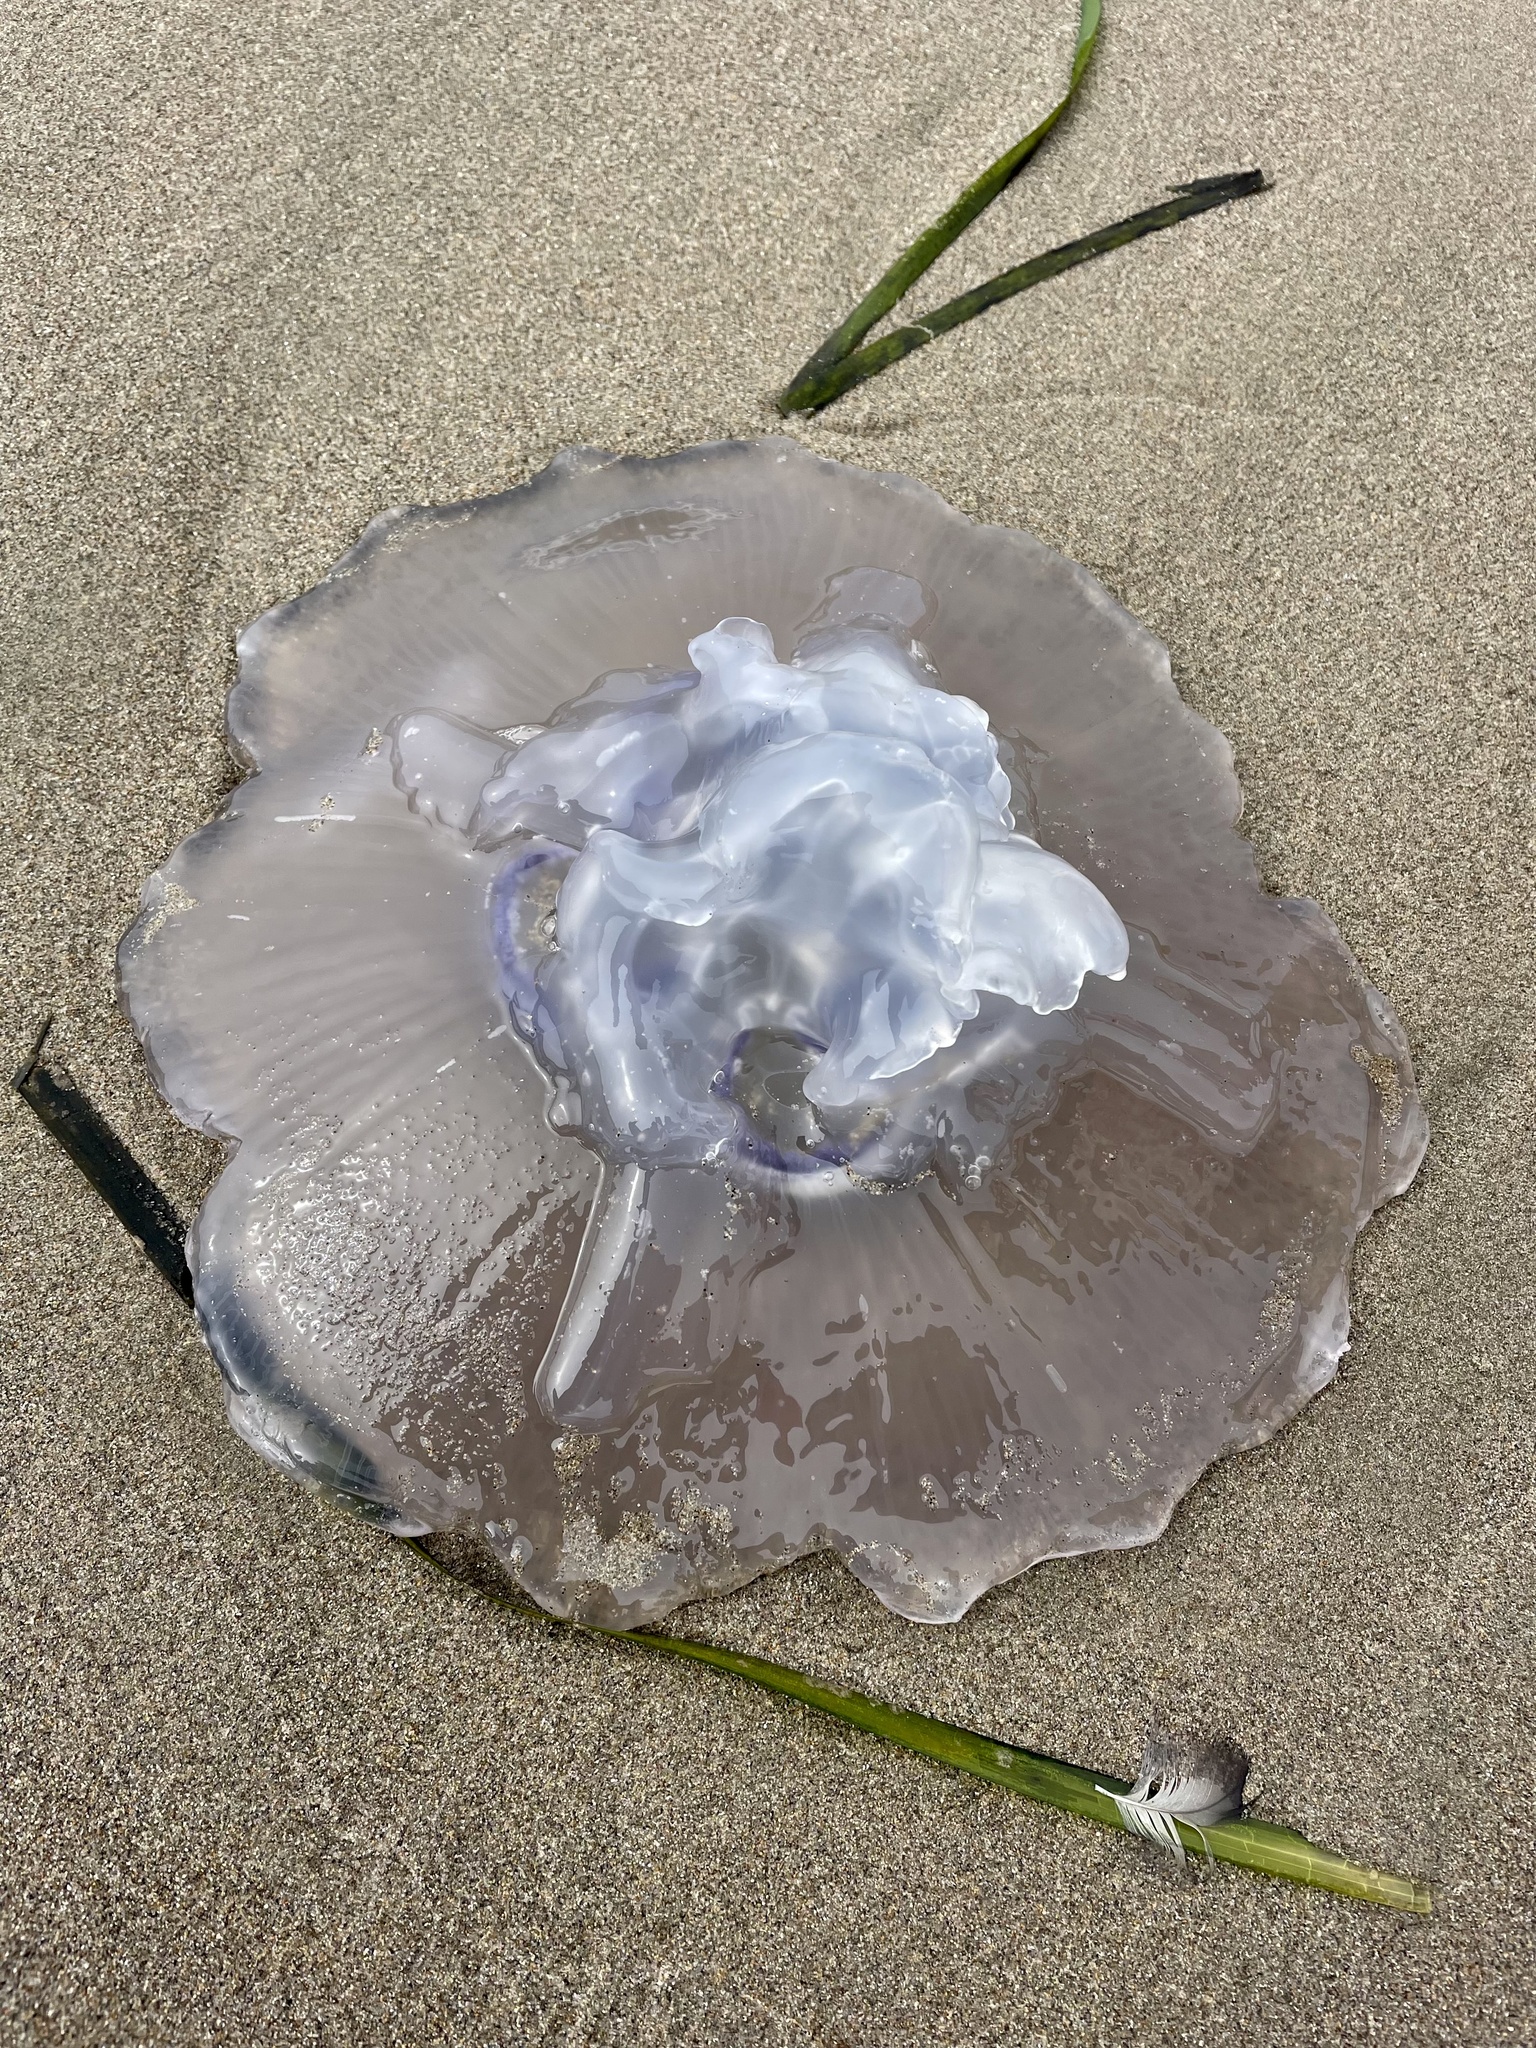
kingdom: Animalia
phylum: Cnidaria
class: Scyphozoa
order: Semaeostomeae
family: Ulmaridae
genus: Aurelia
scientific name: Aurelia labiata
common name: Pacific moon jelly
